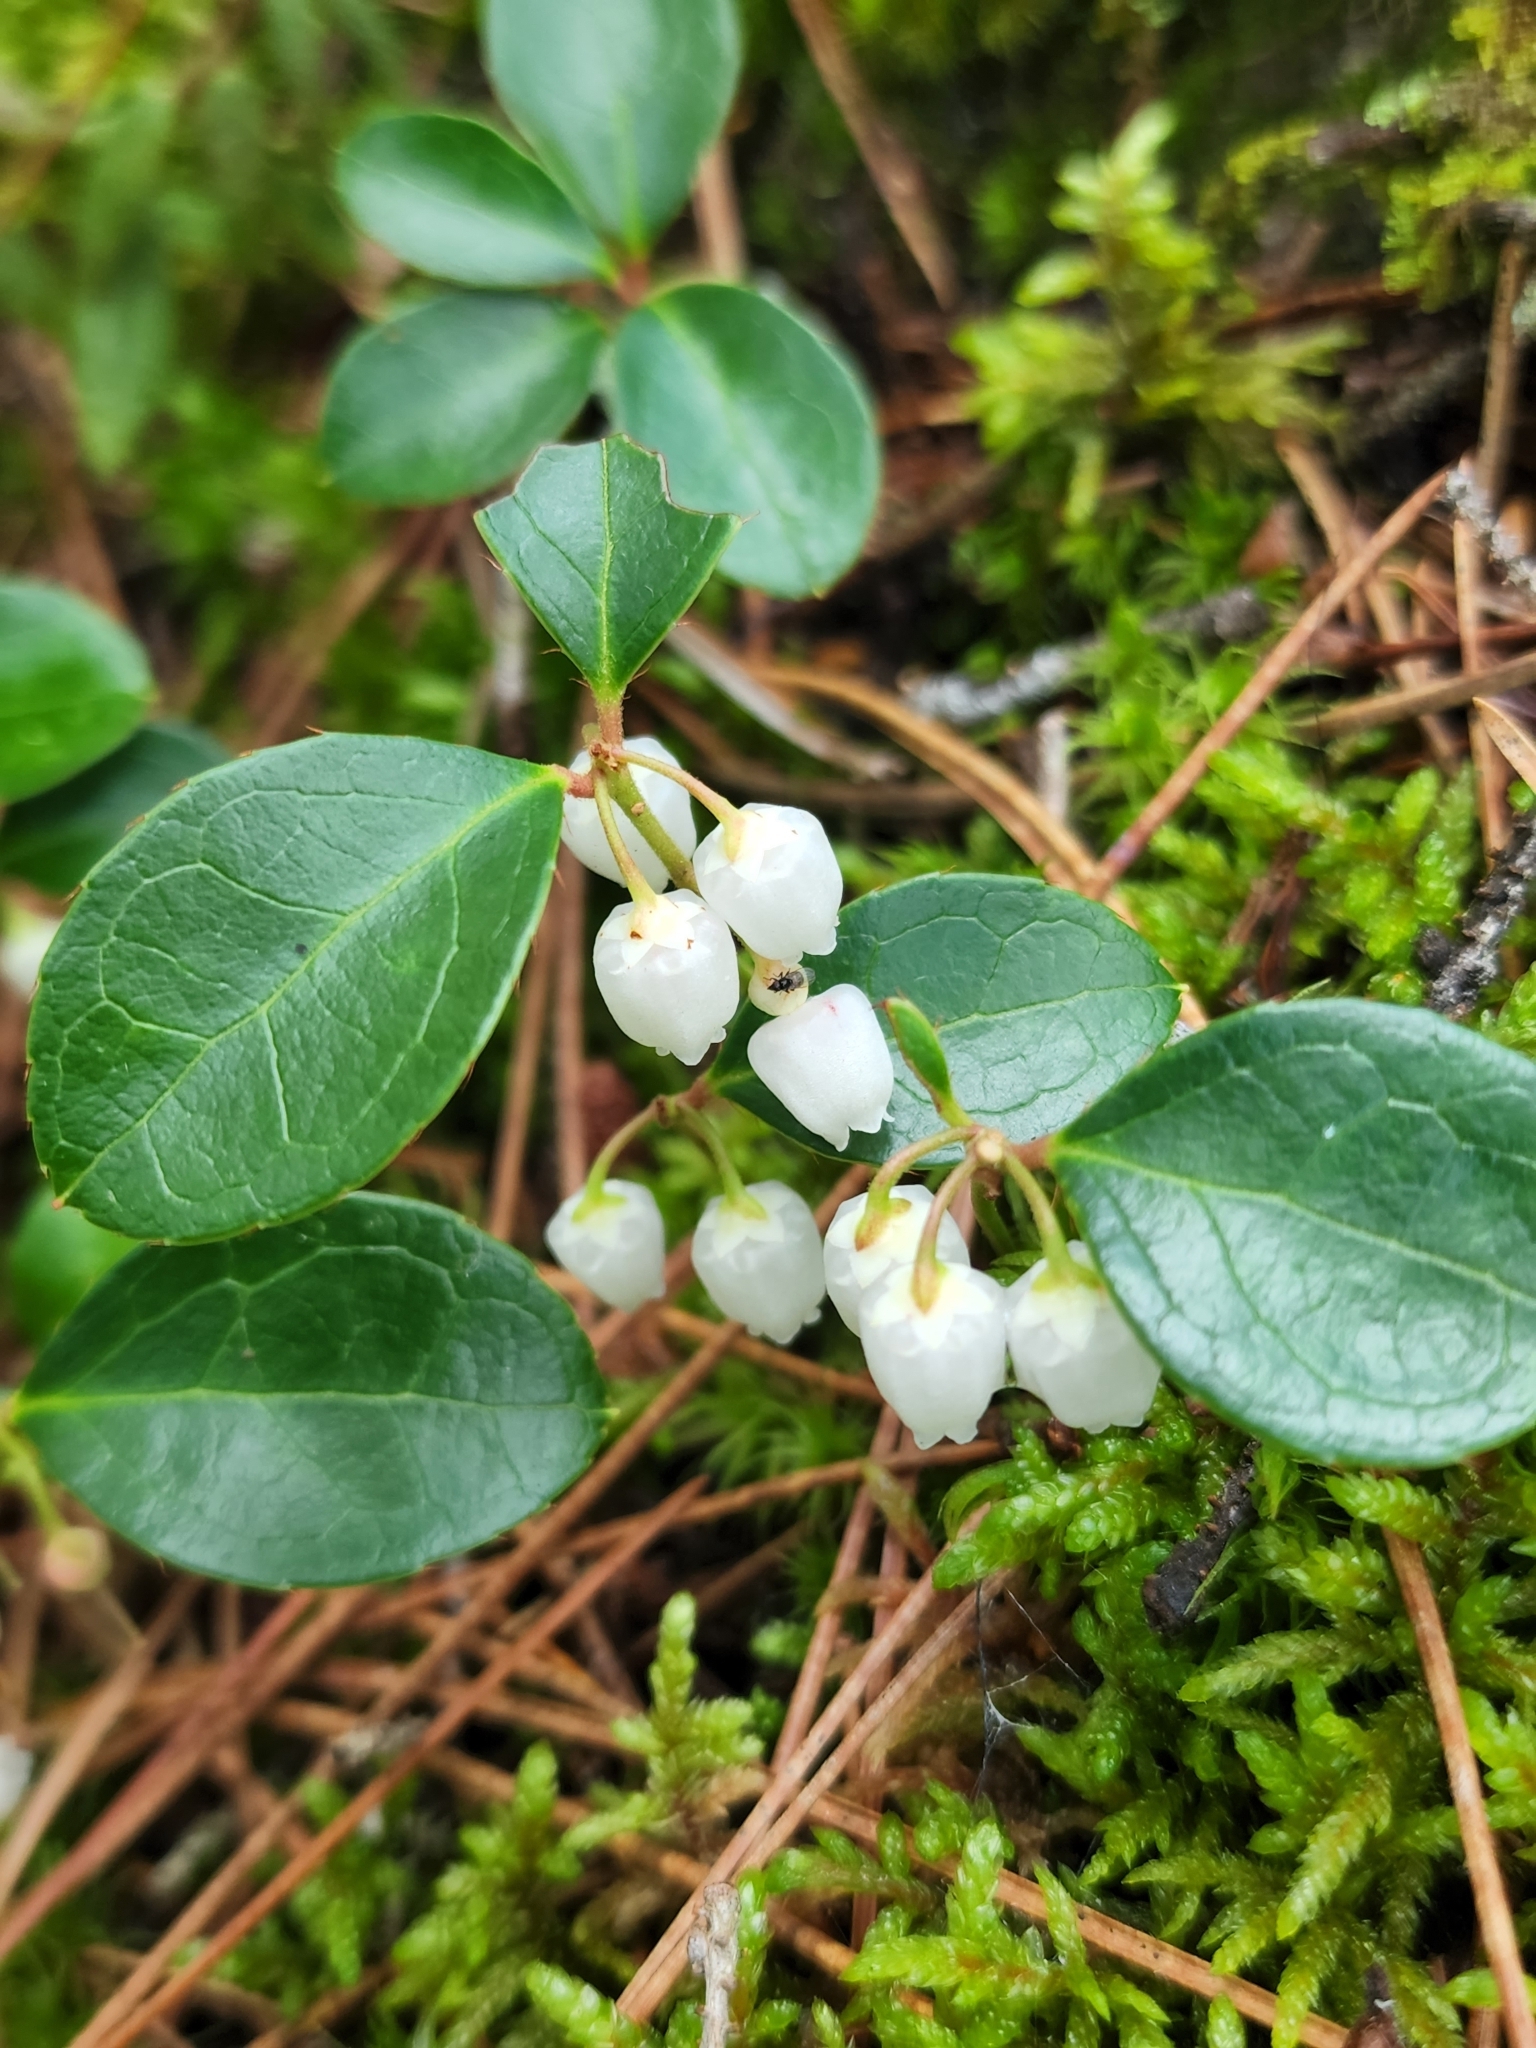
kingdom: Plantae
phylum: Tracheophyta
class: Magnoliopsida
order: Ericales
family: Ericaceae
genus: Gaultheria
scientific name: Gaultheria procumbens
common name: Checkerberry
